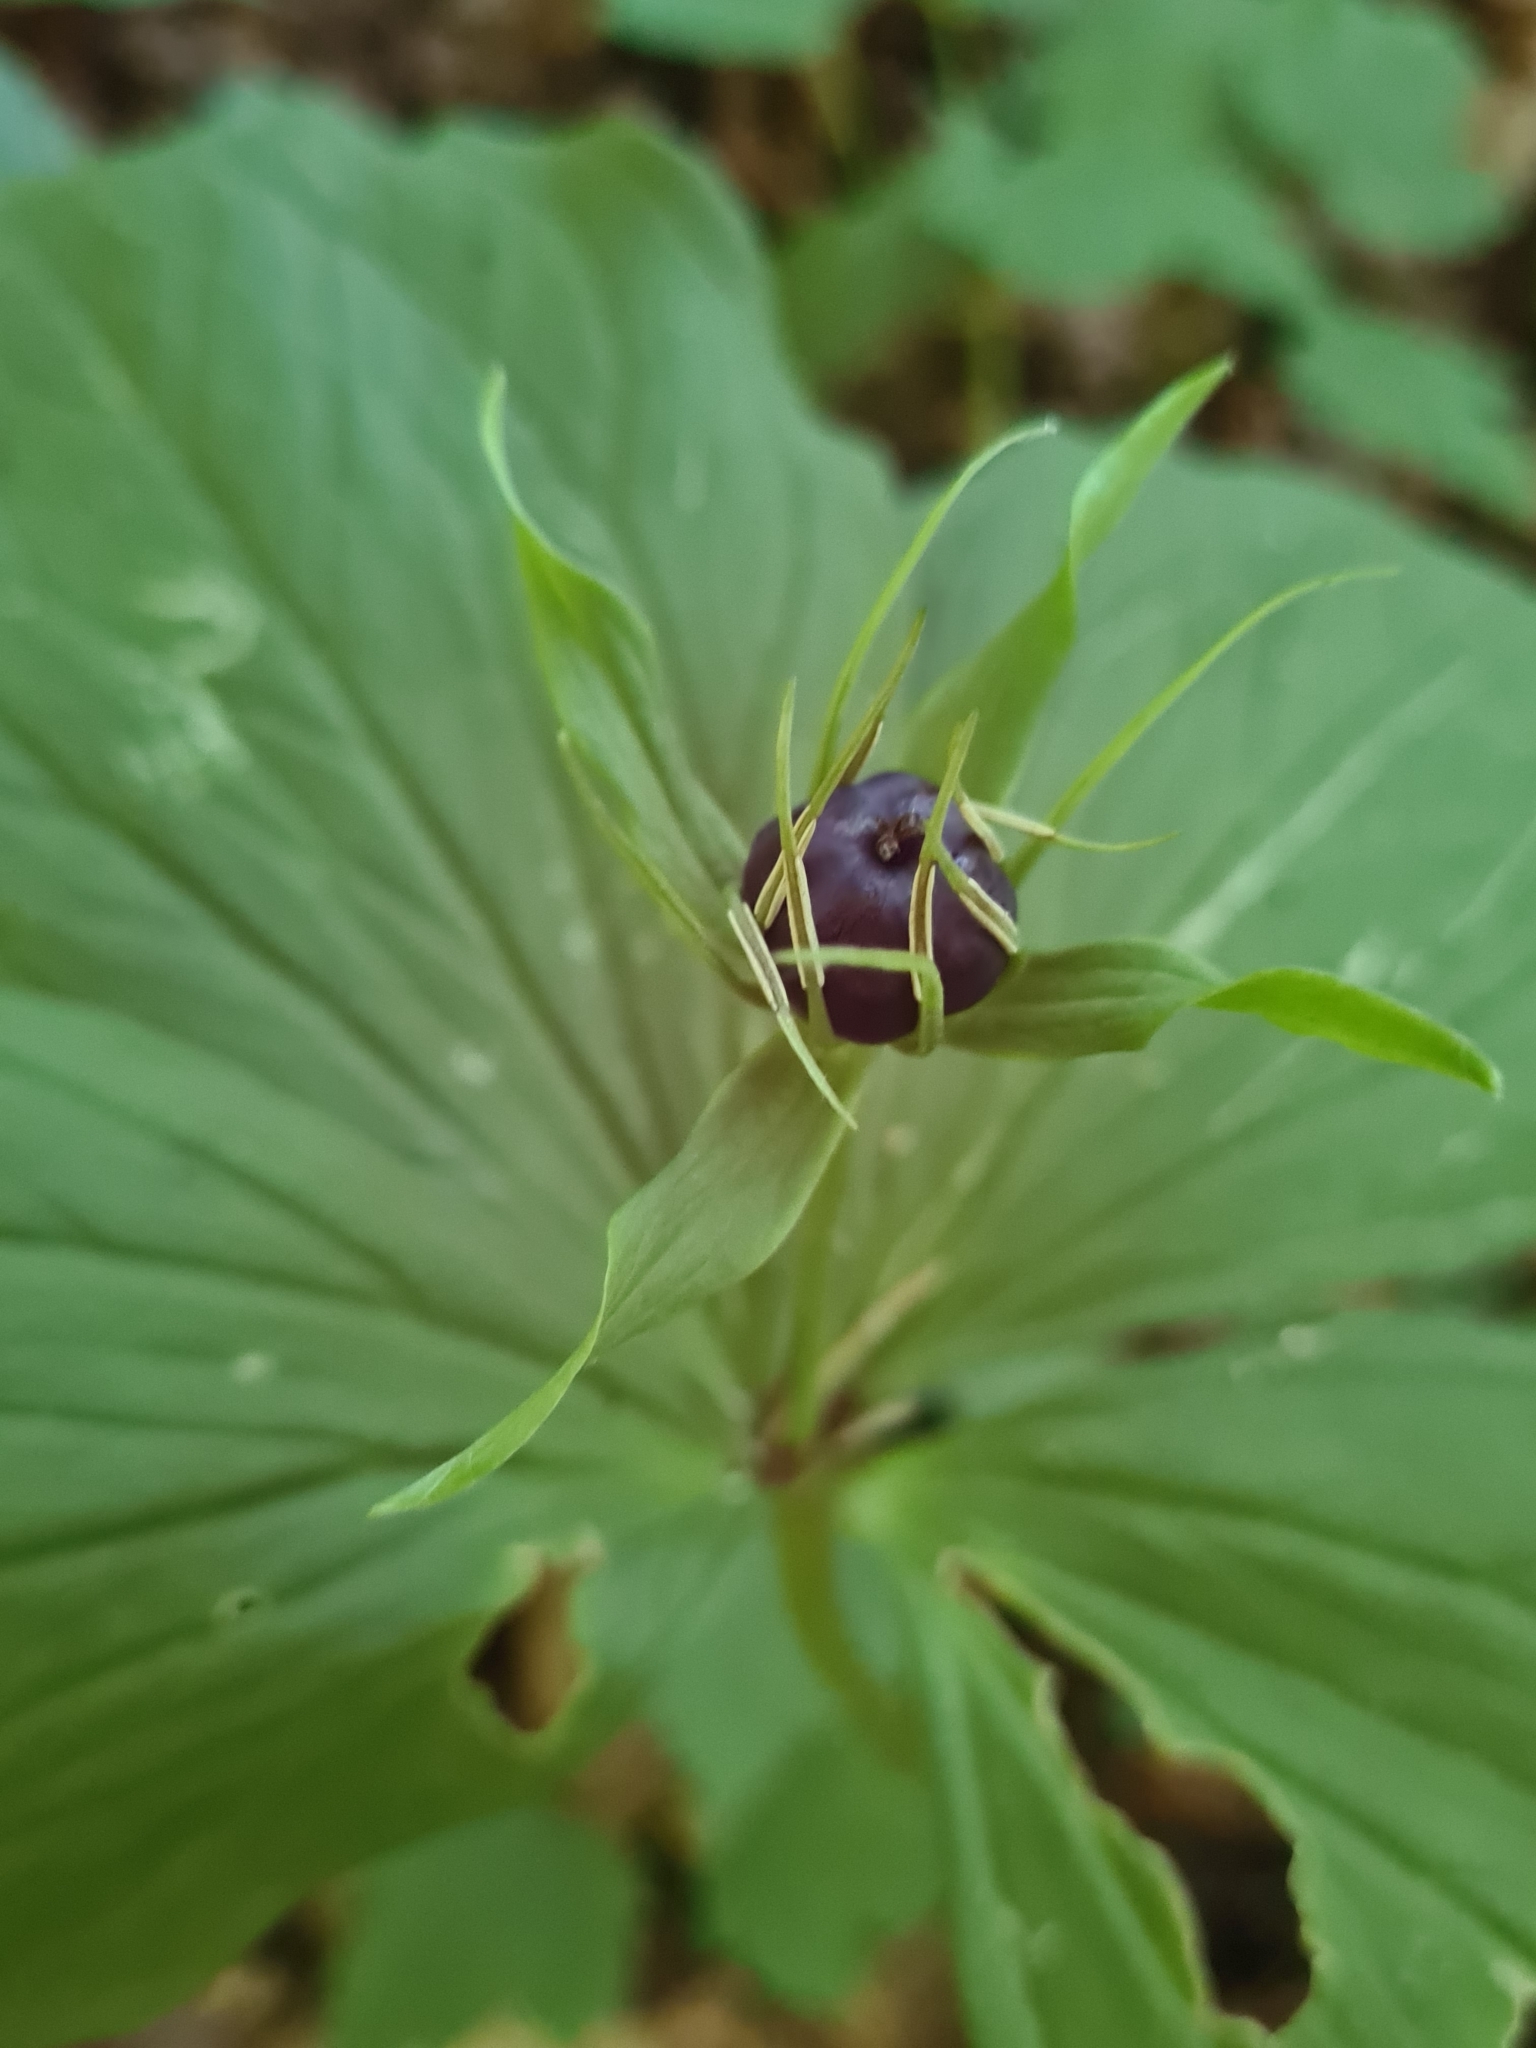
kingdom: Plantae
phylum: Tracheophyta
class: Liliopsida
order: Liliales
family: Melanthiaceae
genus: Paris
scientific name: Paris quadrifolia
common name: Herb-paris
